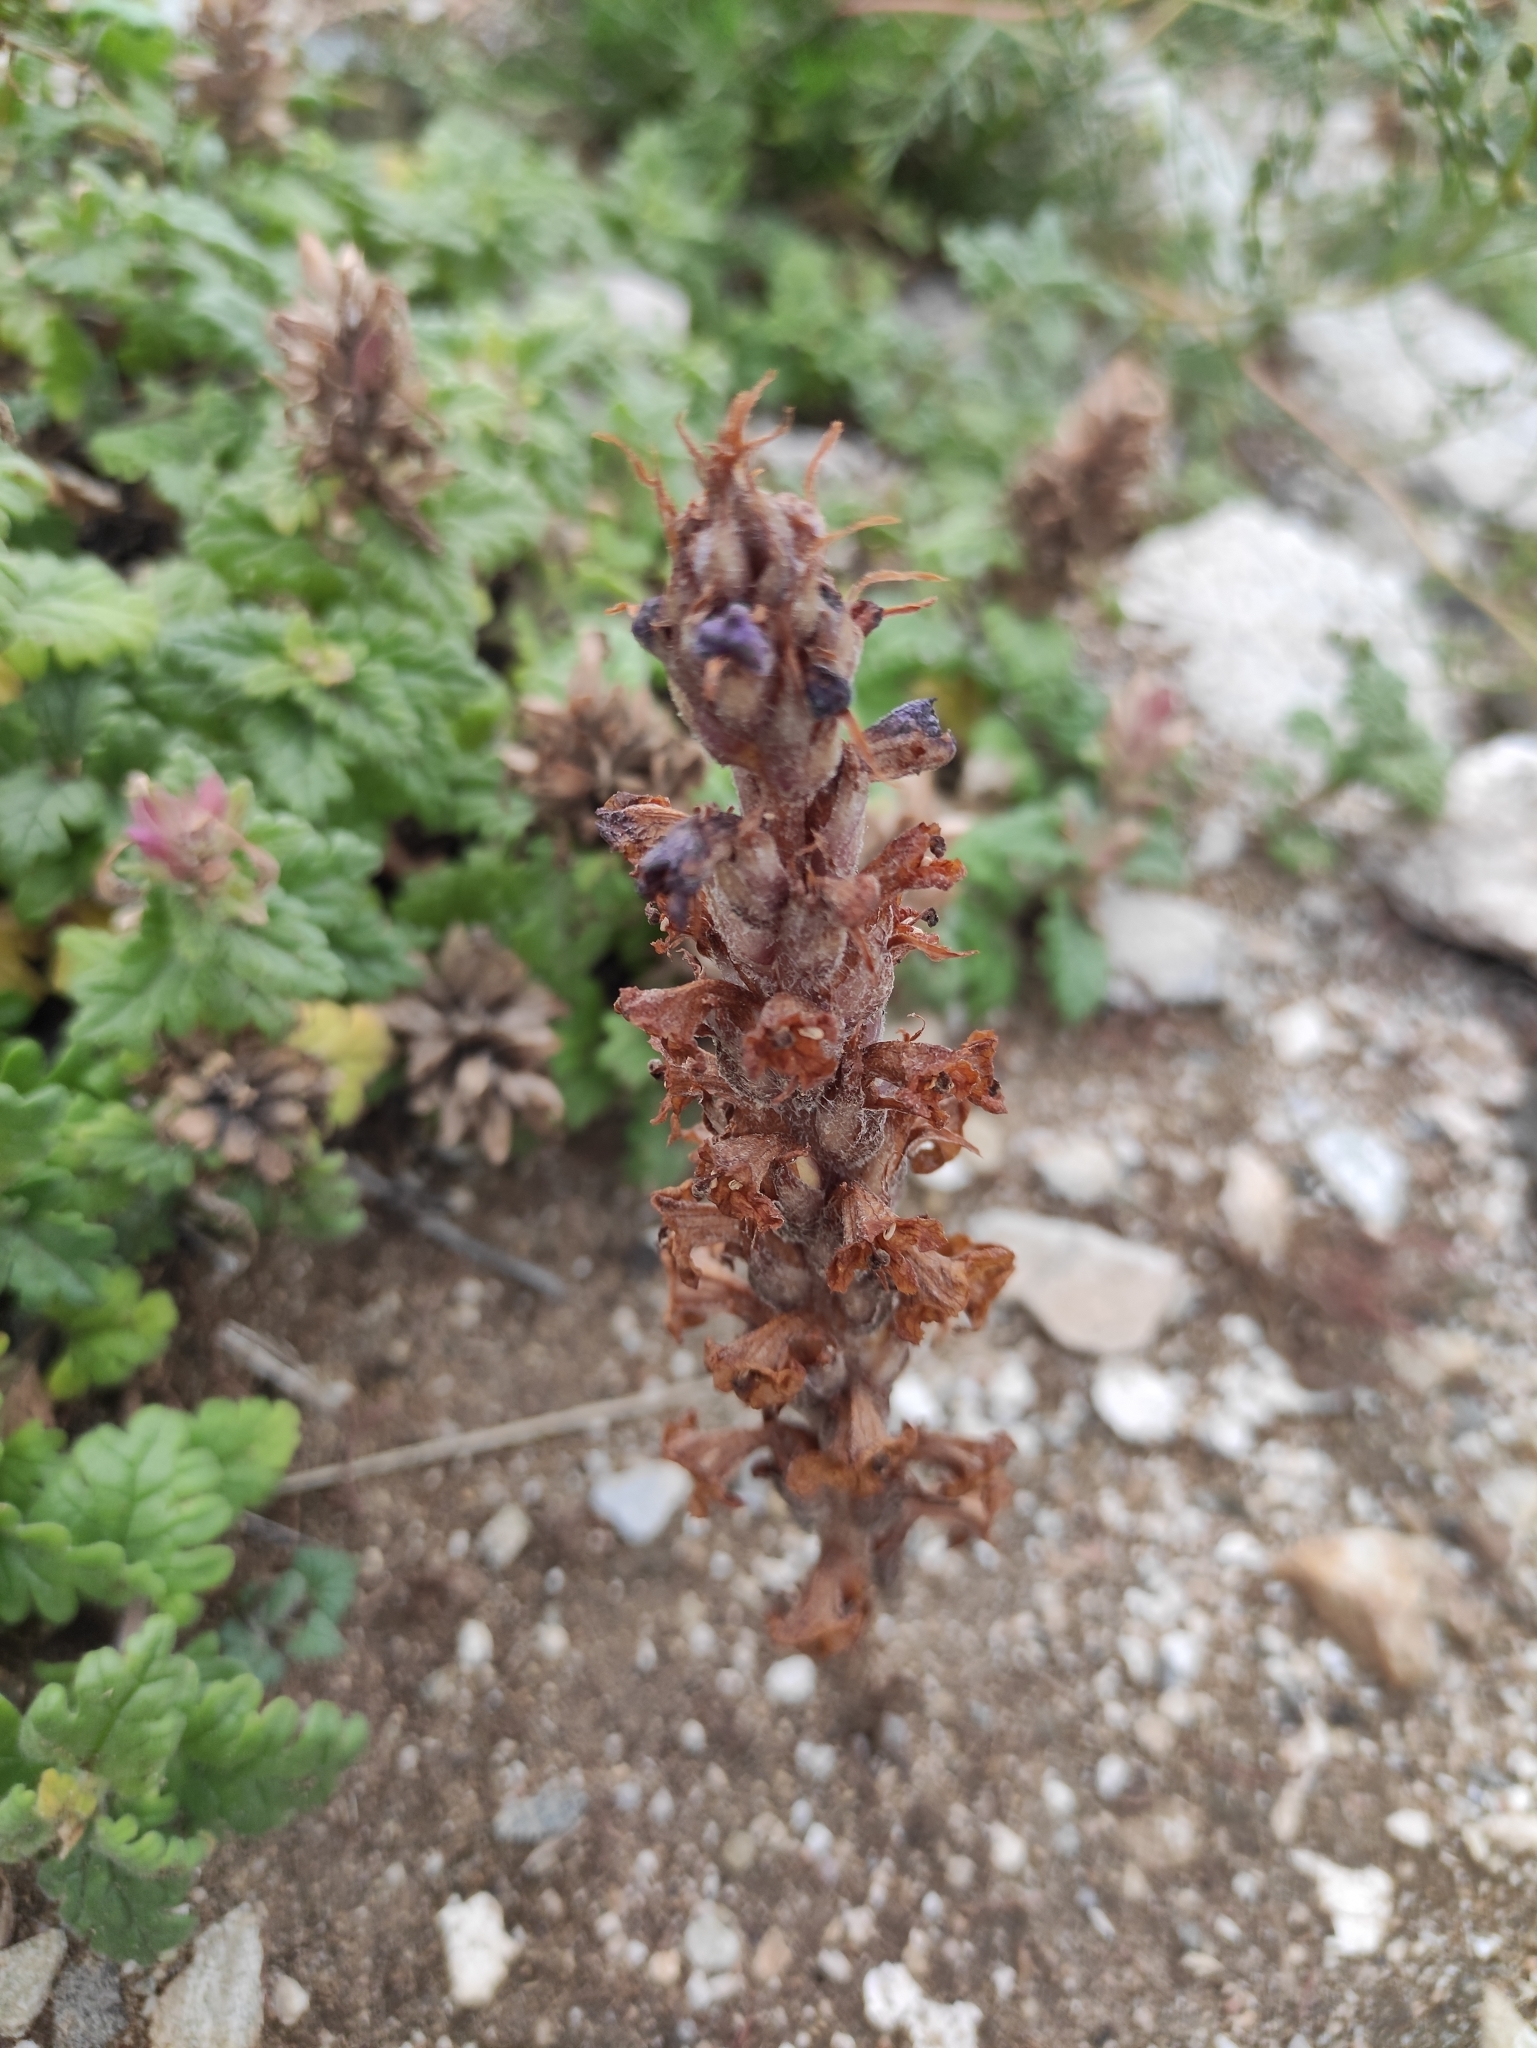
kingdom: Plantae
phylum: Tracheophyta
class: Magnoliopsida
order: Lamiales
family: Orobanchaceae
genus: Orobanche
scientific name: Orobanche coerulescens
